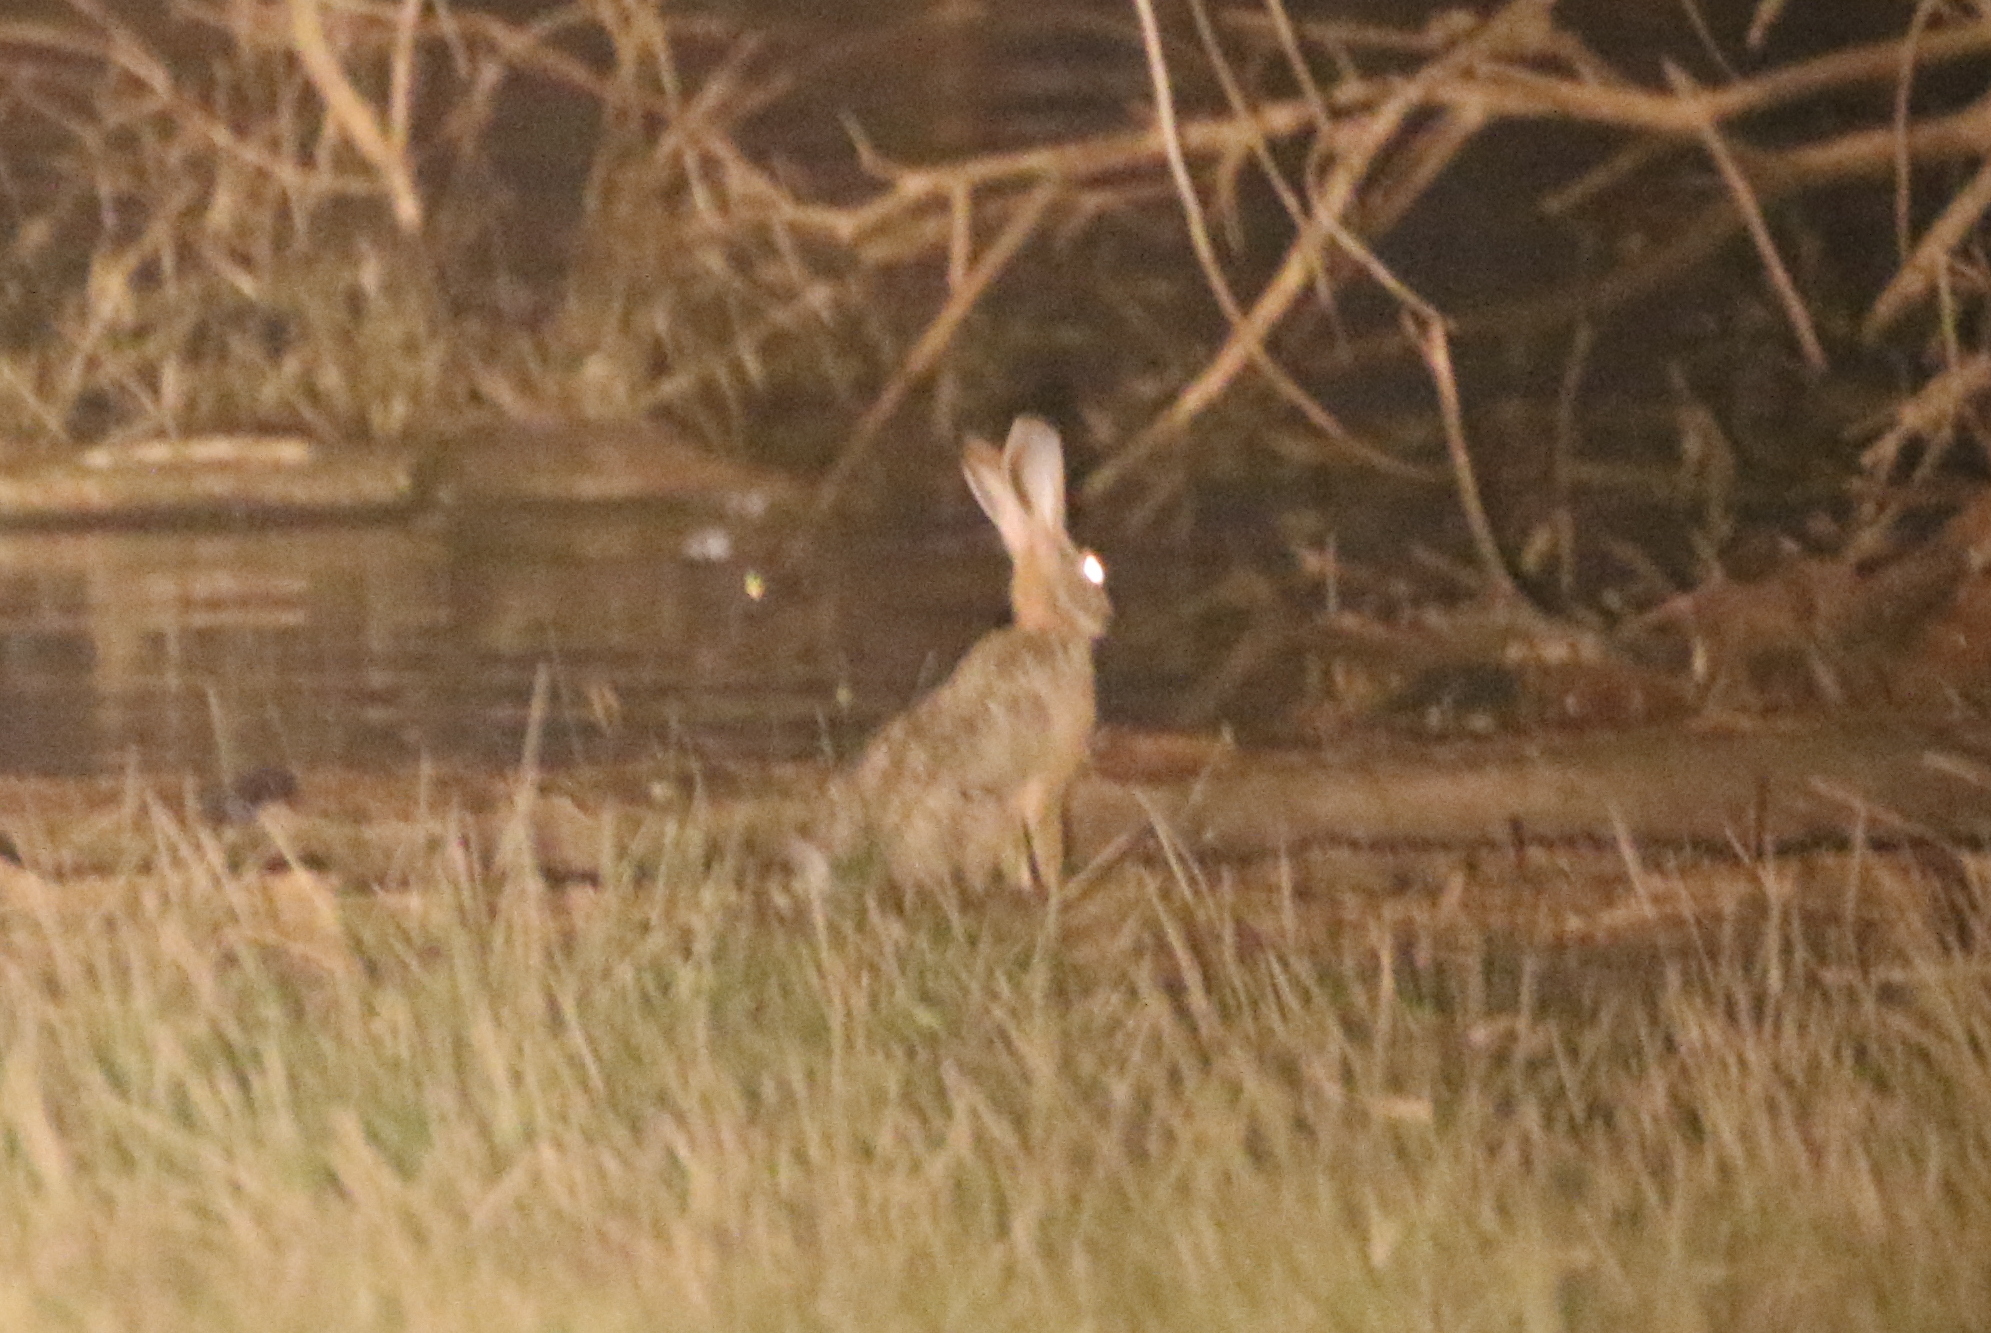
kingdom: Animalia
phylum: Chordata
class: Mammalia
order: Lagomorpha
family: Leporidae
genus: Lepus
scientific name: Lepus victoriae
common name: African savanna hare
